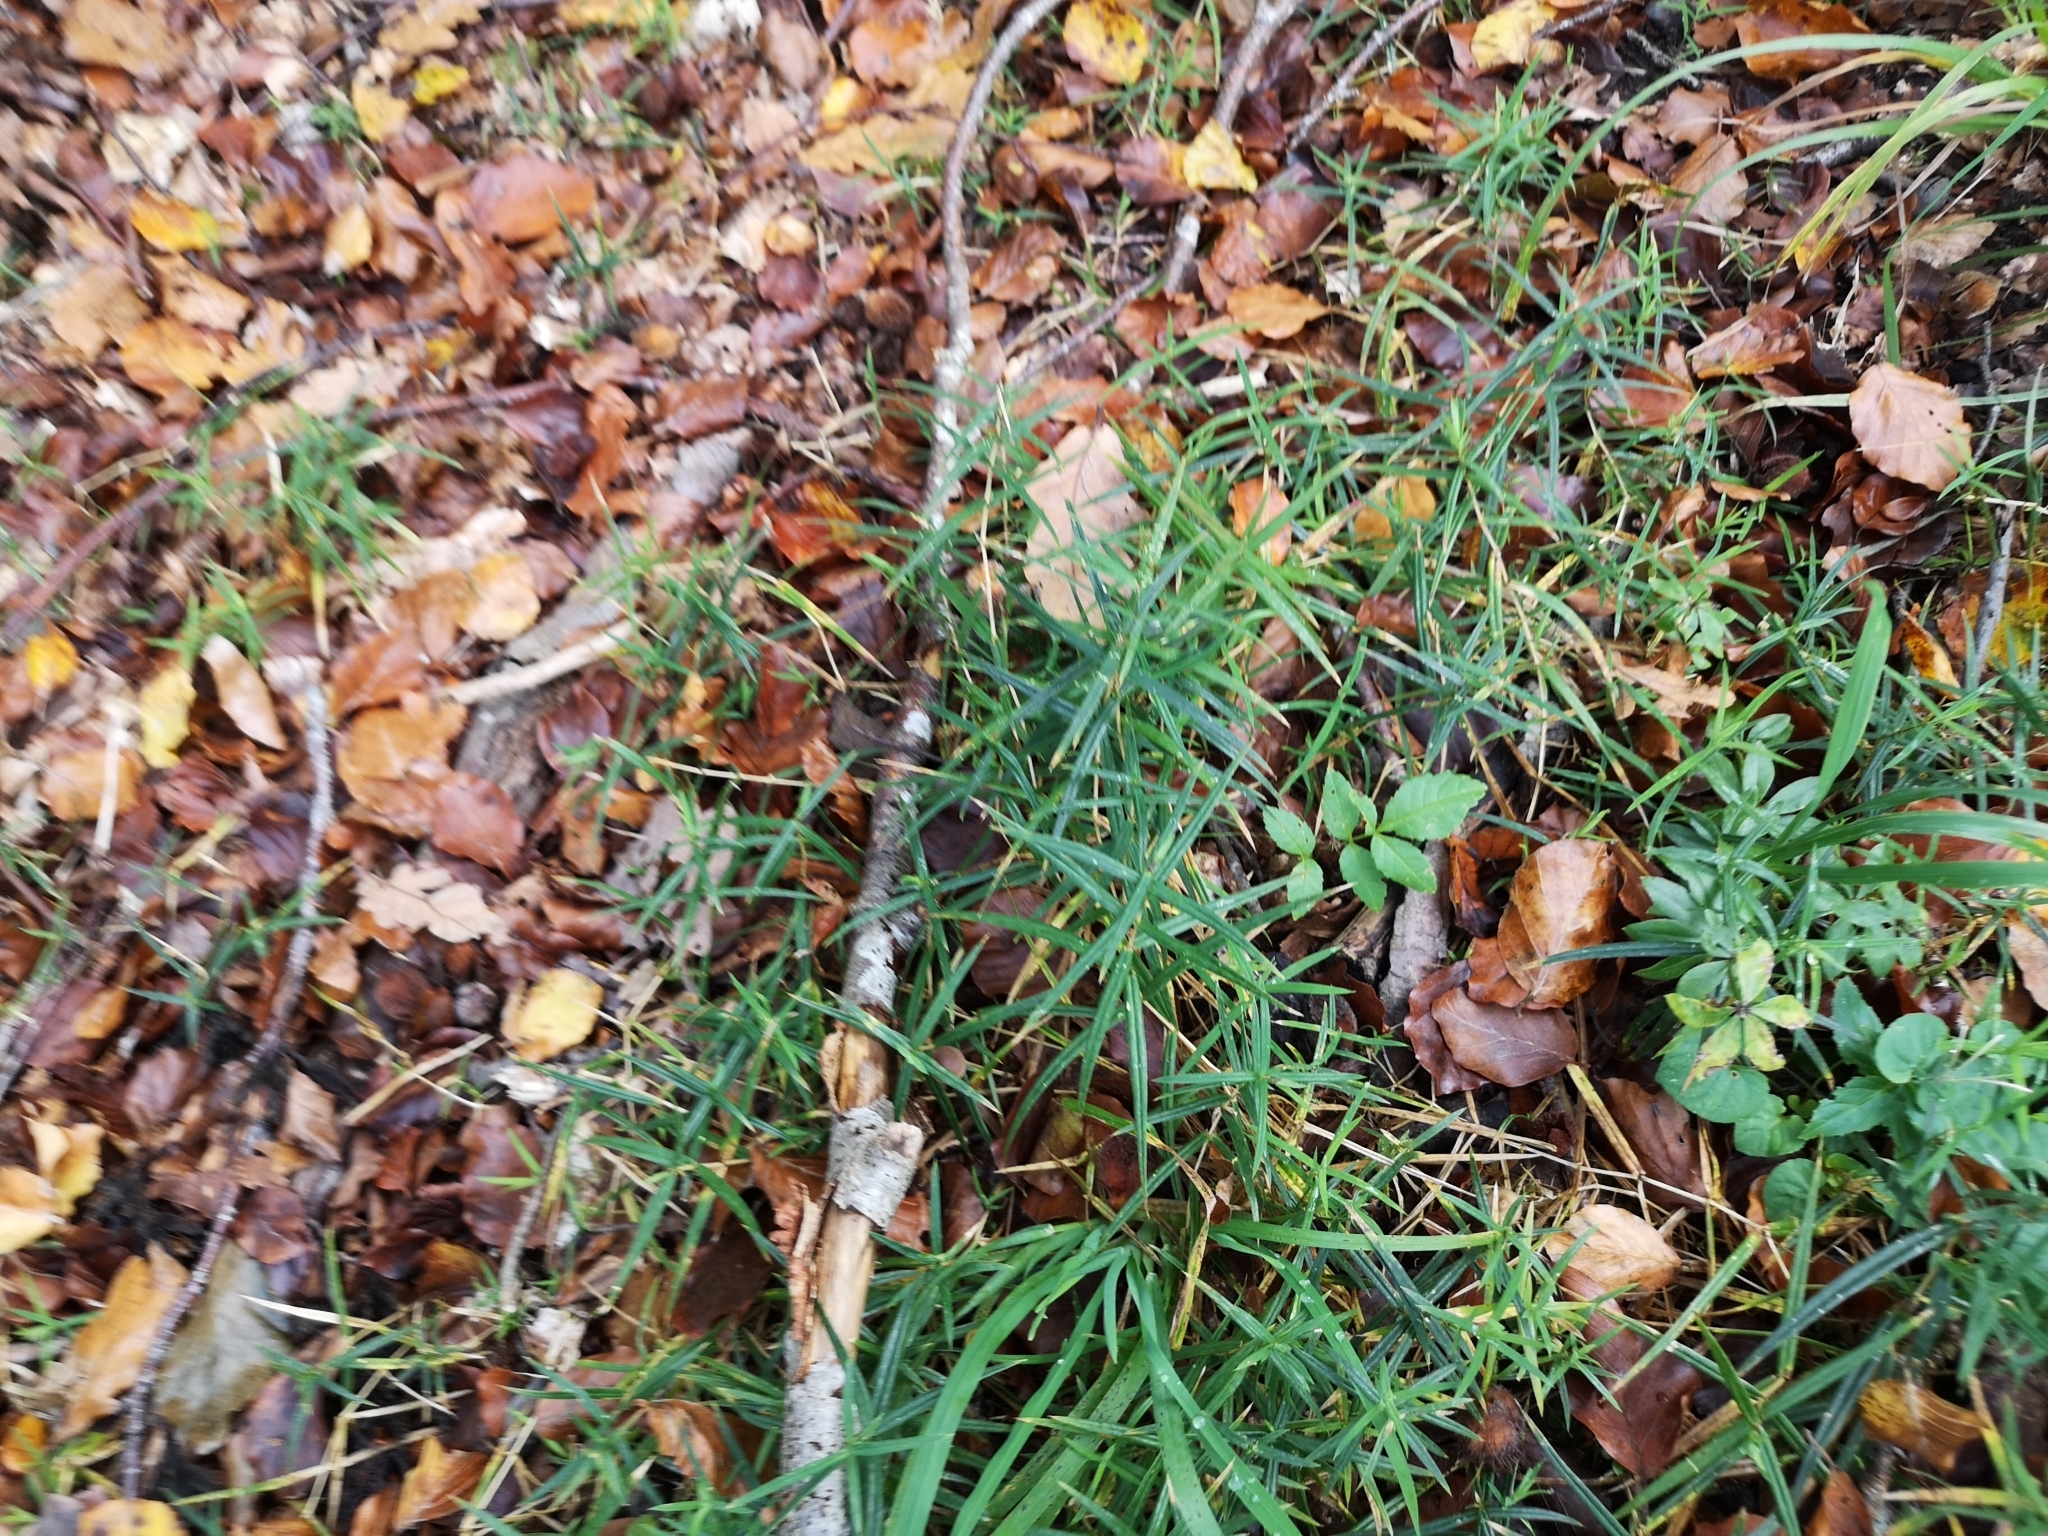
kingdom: Plantae
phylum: Tracheophyta
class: Magnoliopsida
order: Caryophyllales
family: Caryophyllaceae
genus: Rabelera
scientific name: Rabelera holostea
